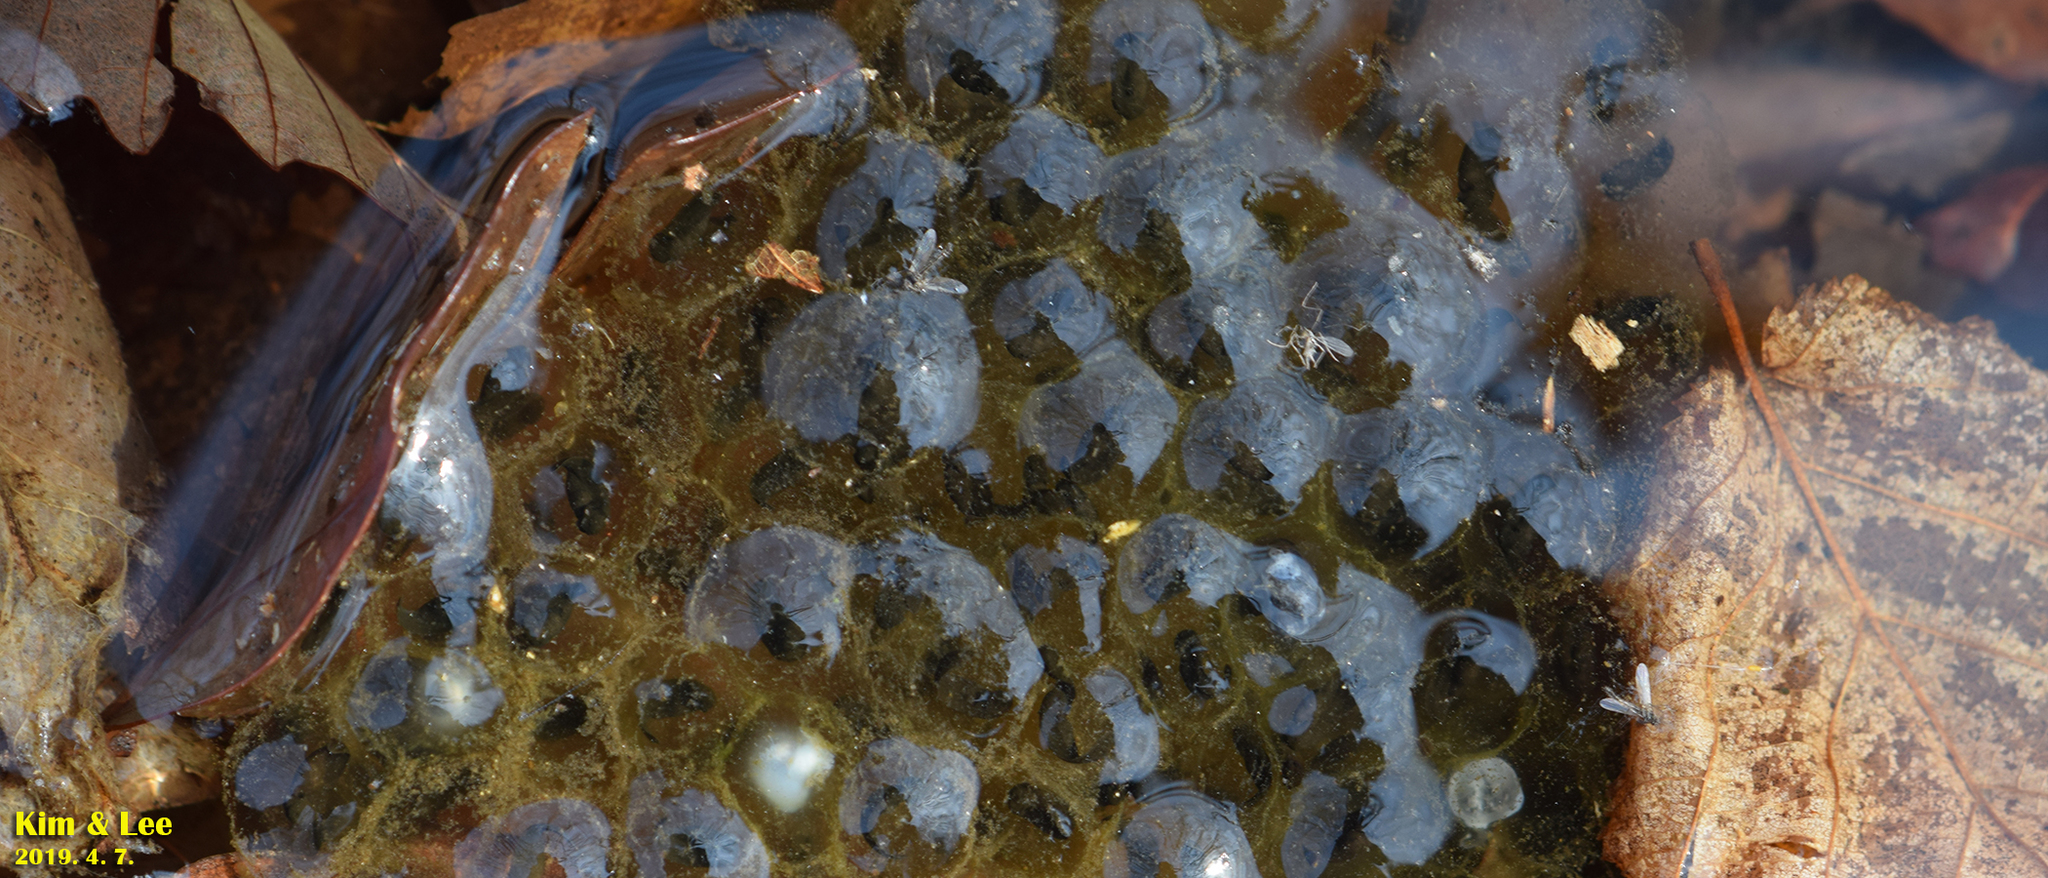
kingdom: Animalia
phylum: Chordata
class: Amphibia
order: Anura
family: Ranidae
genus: Rana
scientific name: Rana huanrenensis
